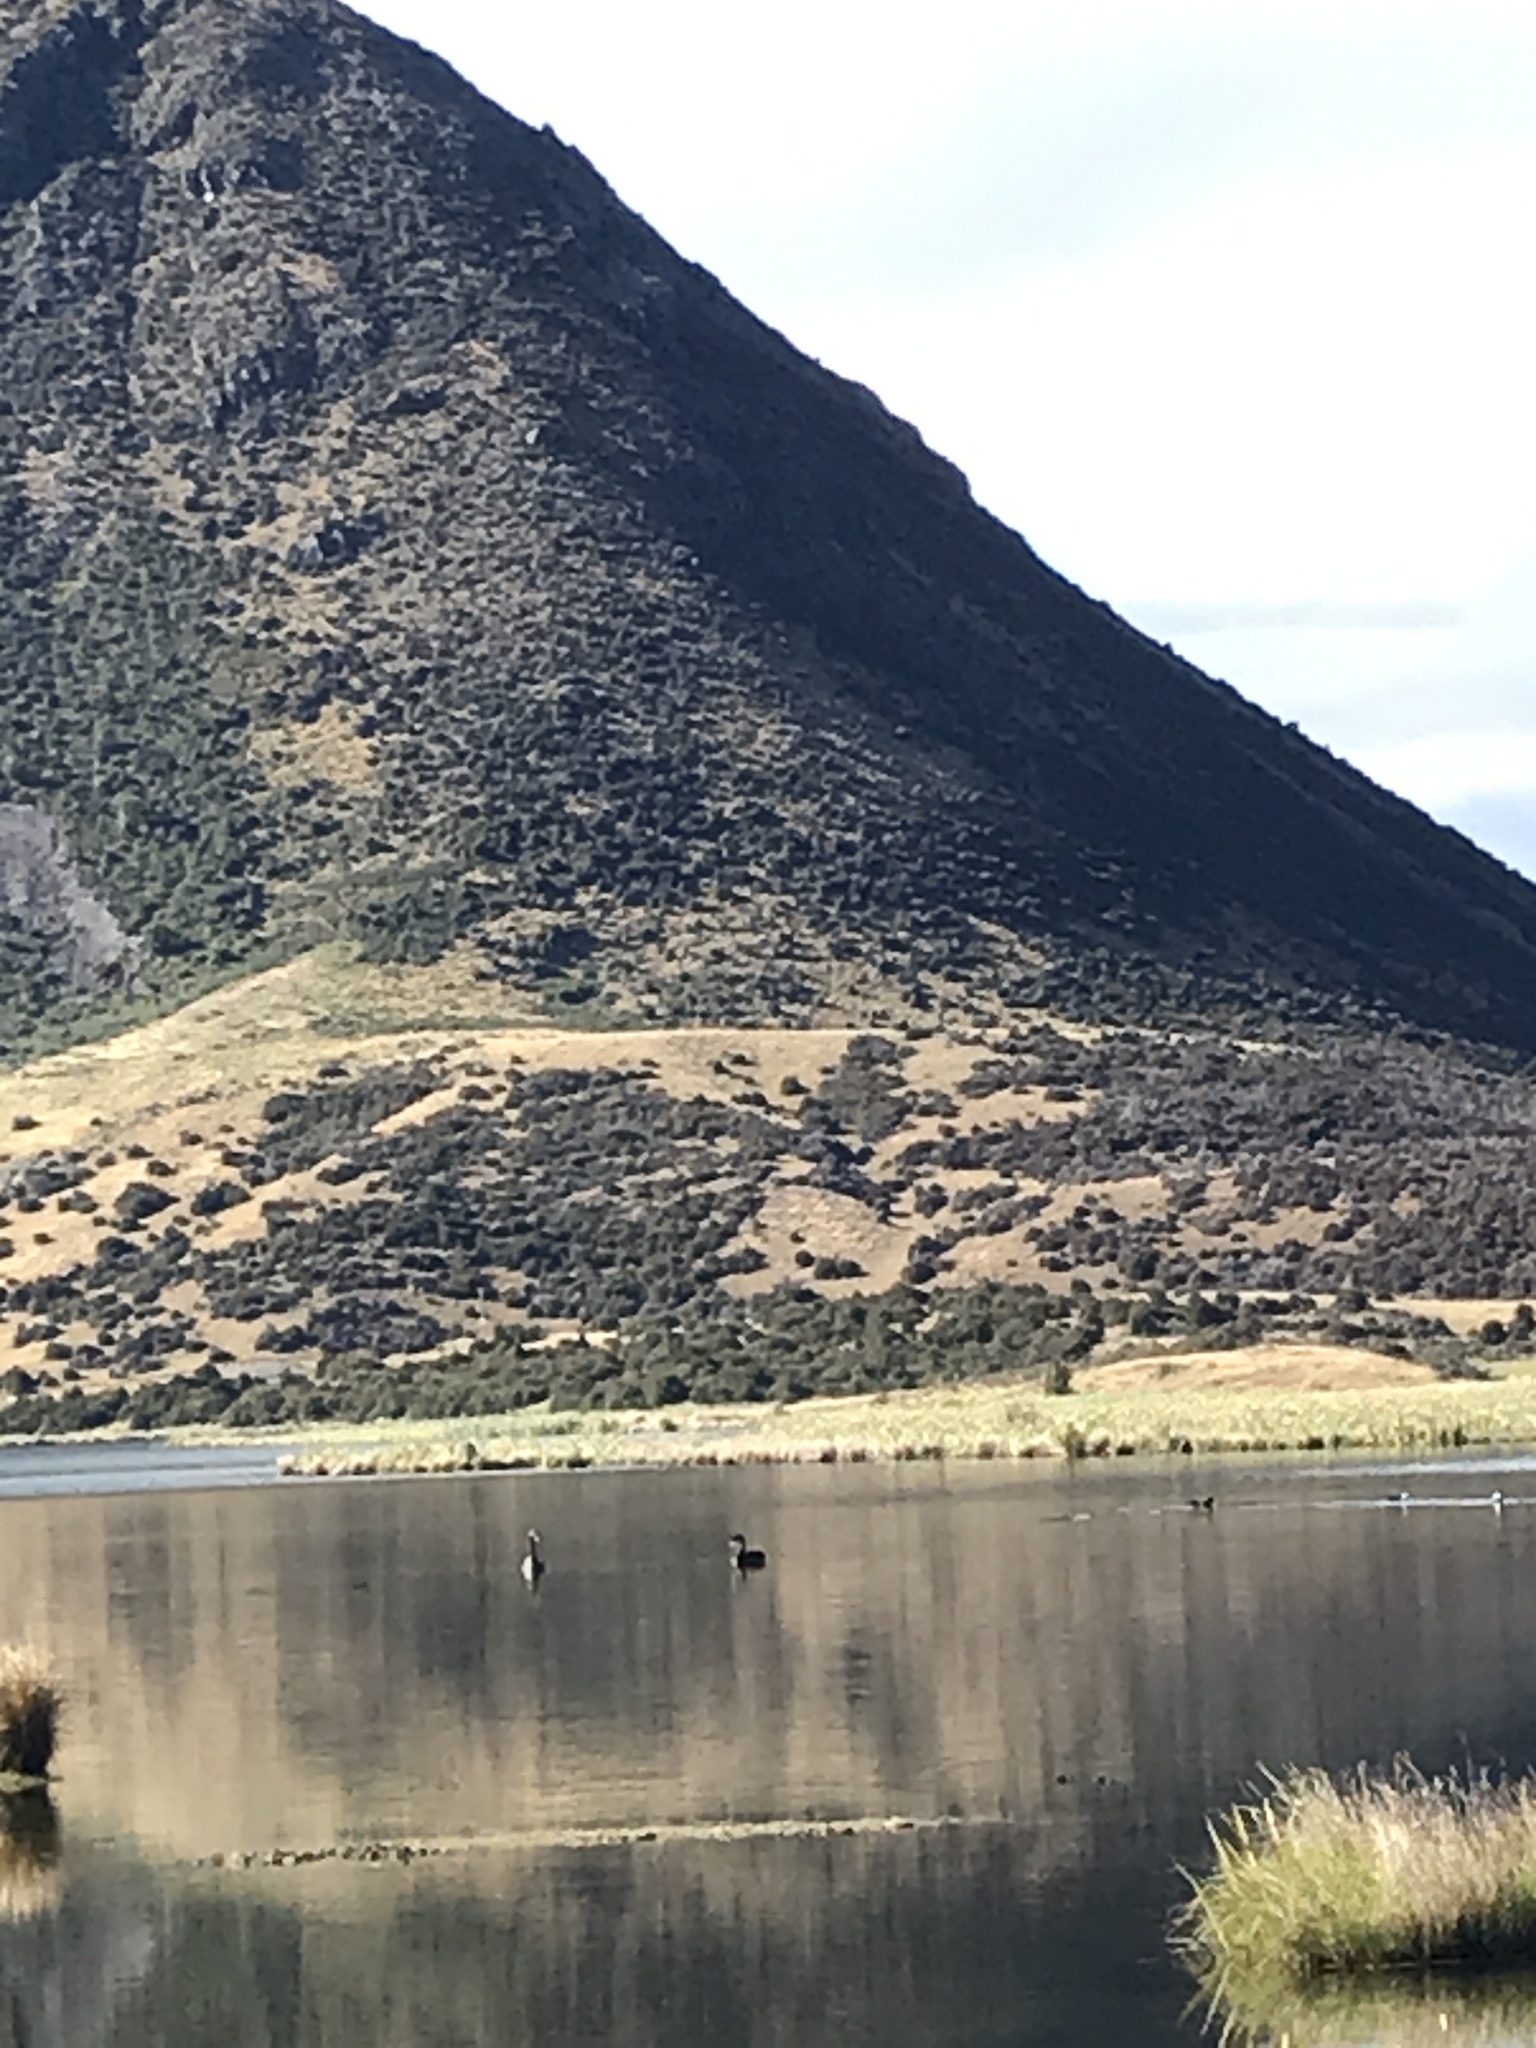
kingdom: Animalia
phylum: Chordata
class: Aves
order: Anseriformes
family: Anatidae
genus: Cygnus
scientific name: Cygnus atratus
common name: Black swan
